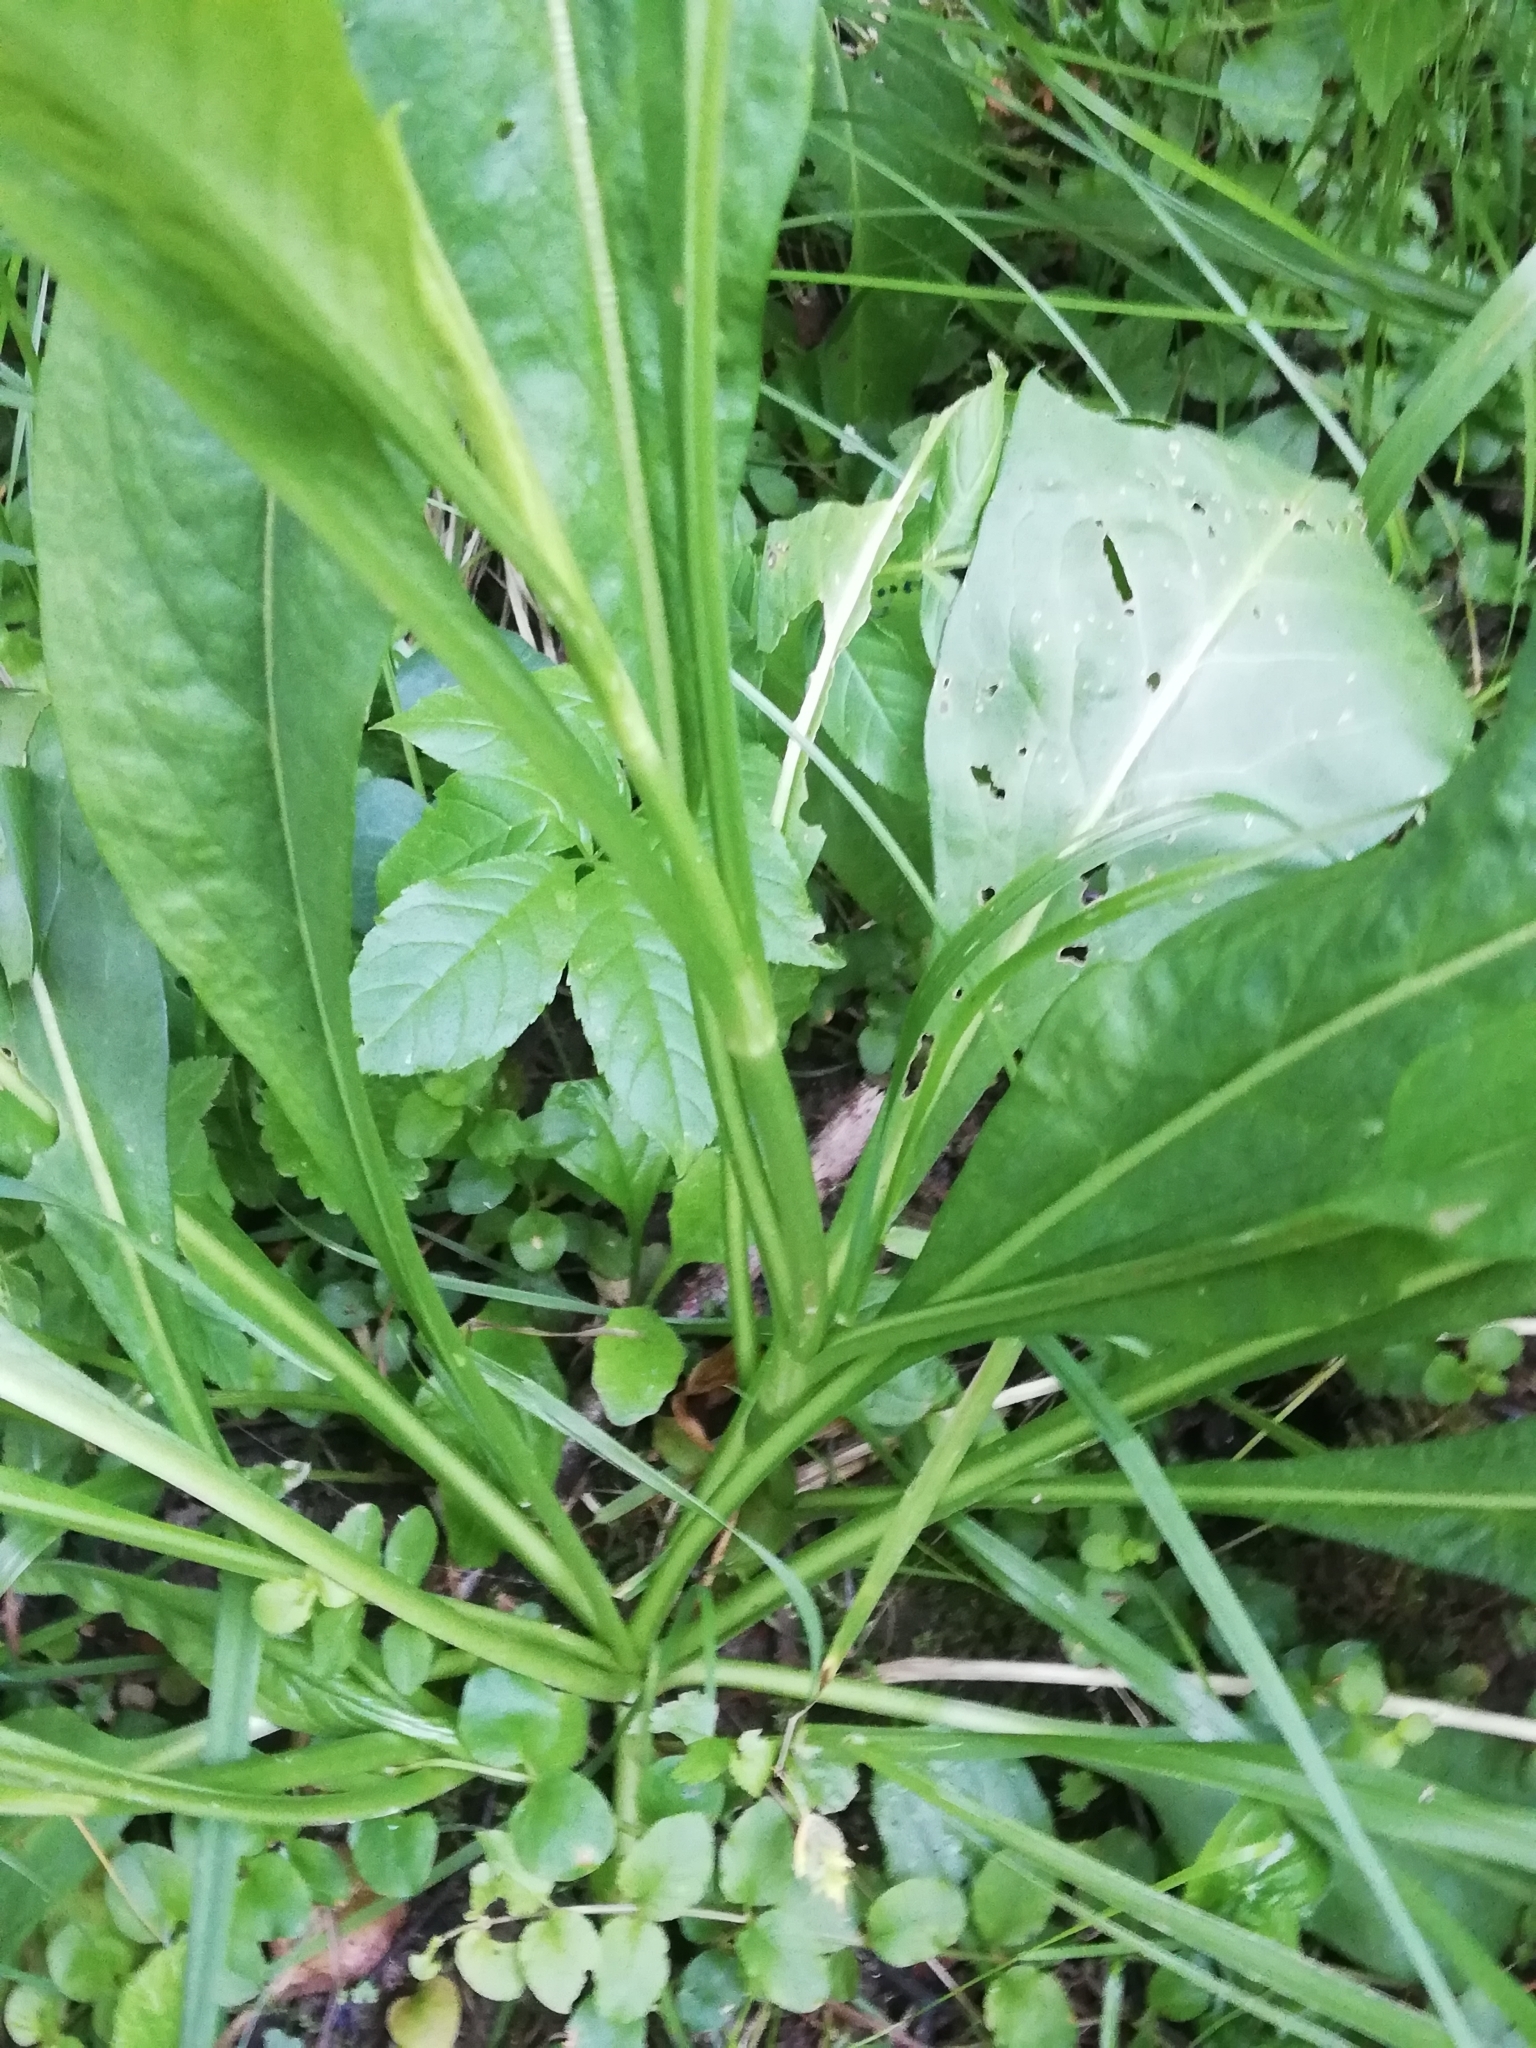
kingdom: Plantae
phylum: Tracheophyta
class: Magnoliopsida
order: Dipsacales
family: Caprifoliaceae
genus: Succisa
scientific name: Succisa pratensis
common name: Devil's-bit
